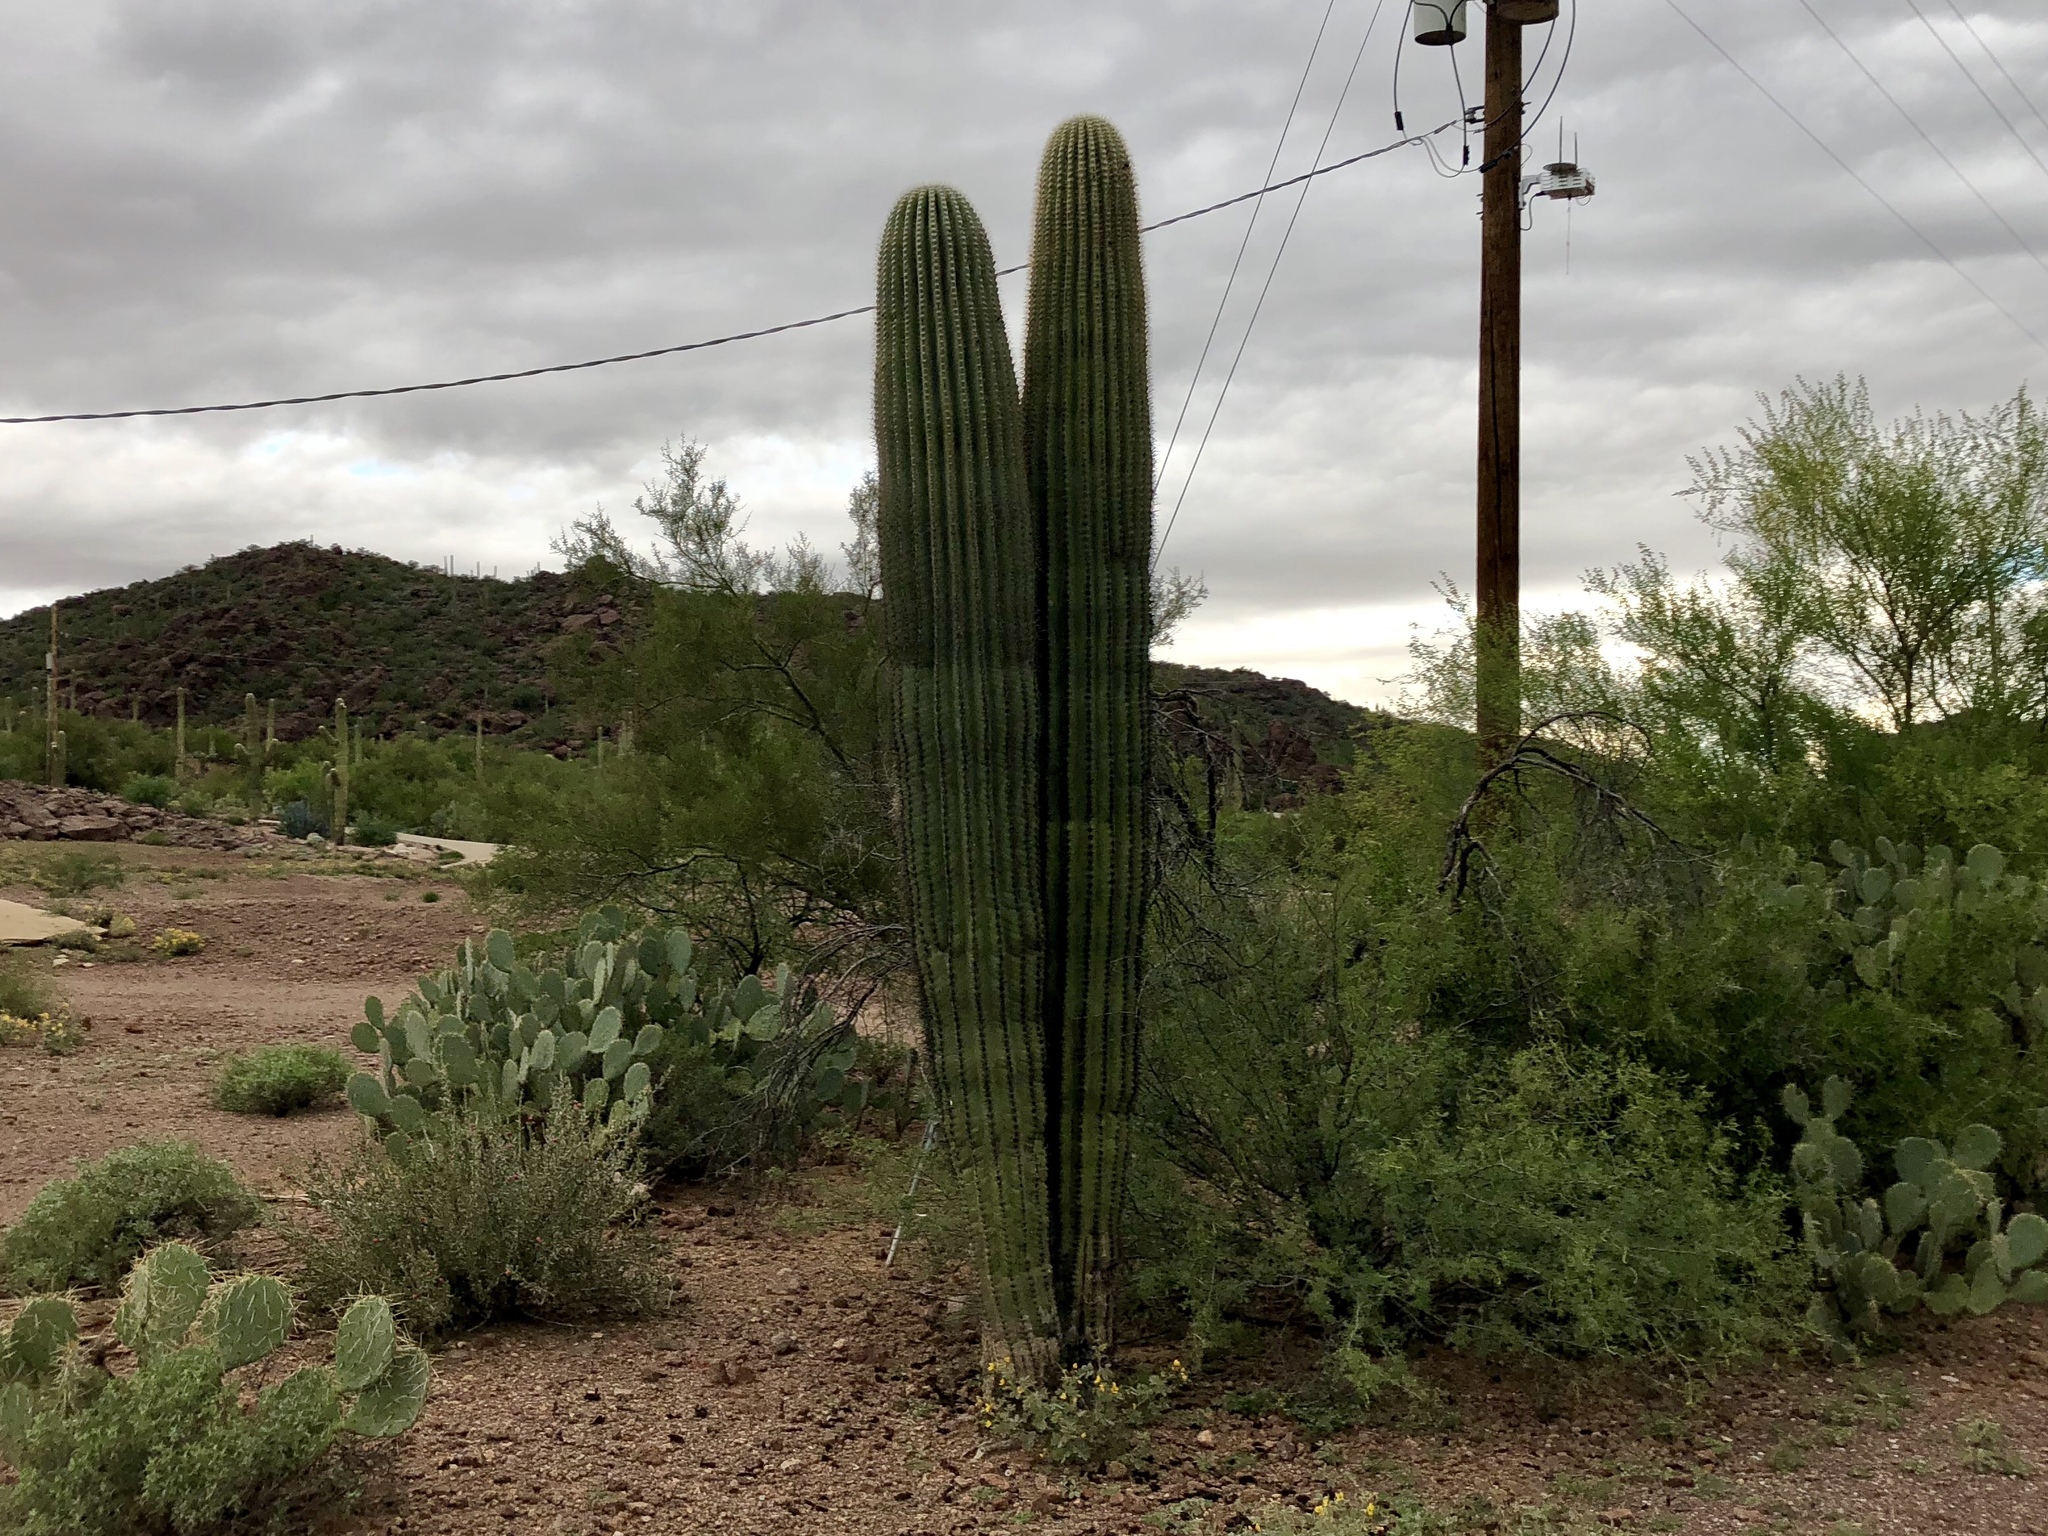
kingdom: Plantae
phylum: Tracheophyta
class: Magnoliopsida
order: Caryophyllales
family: Cactaceae
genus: Carnegiea
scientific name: Carnegiea gigantea
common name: Saguaro
